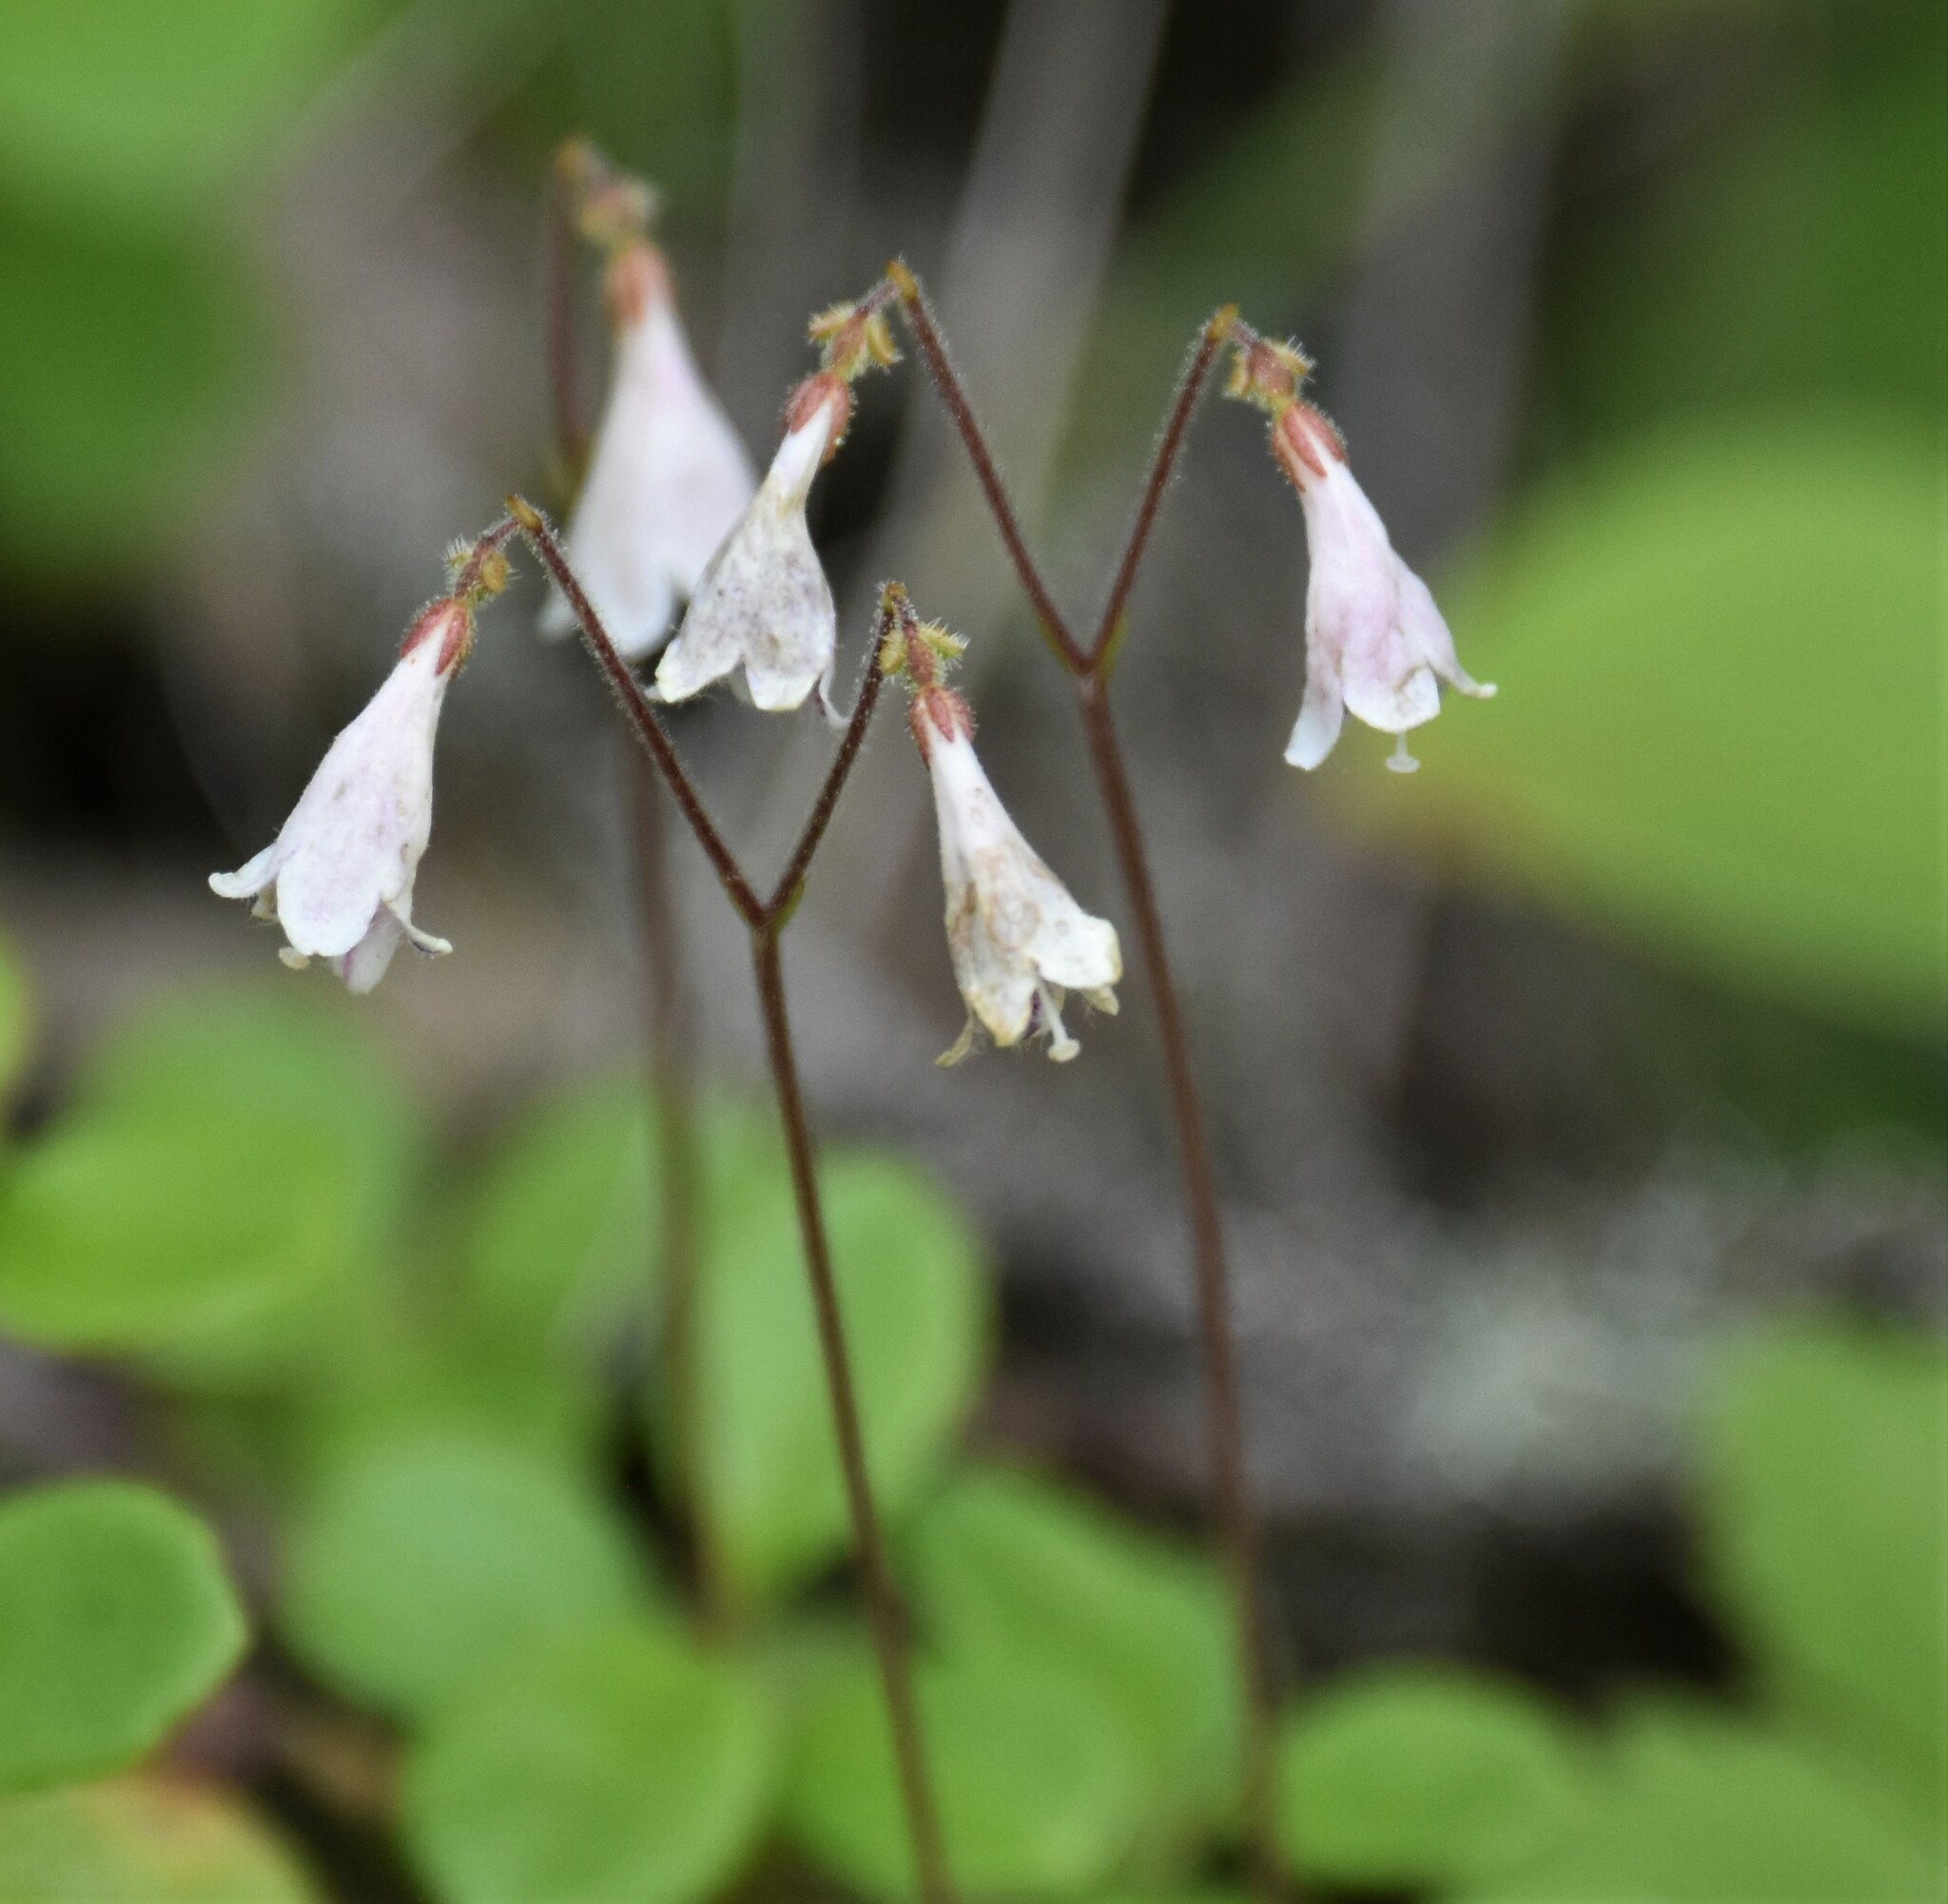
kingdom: Plantae
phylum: Tracheophyta
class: Magnoliopsida
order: Dipsacales
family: Caprifoliaceae
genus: Linnaea
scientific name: Linnaea borealis
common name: Twinflower
